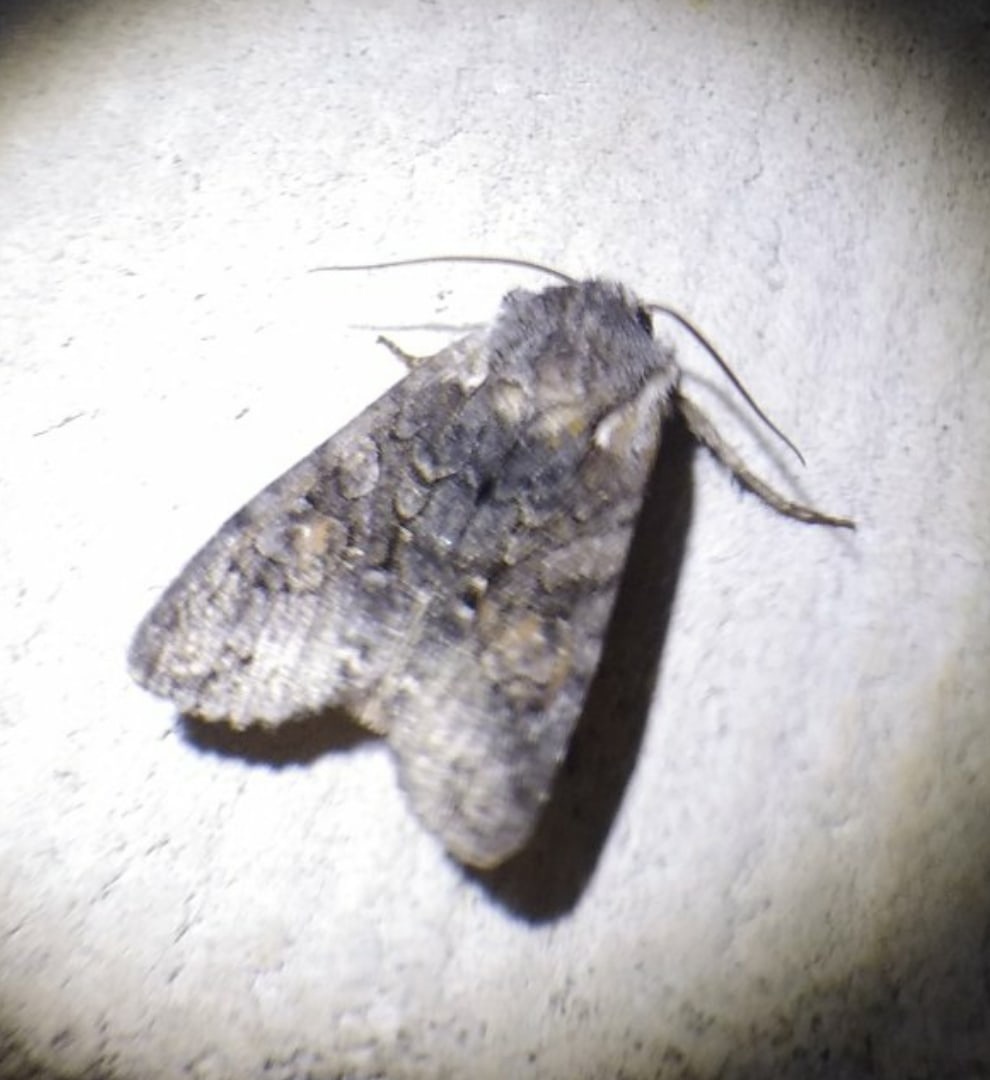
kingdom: Animalia
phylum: Arthropoda
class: Insecta
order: Lepidoptera
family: Noctuidae
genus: Lithophane
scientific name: Lithophane consocia
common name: Softly's shoulder-knot
